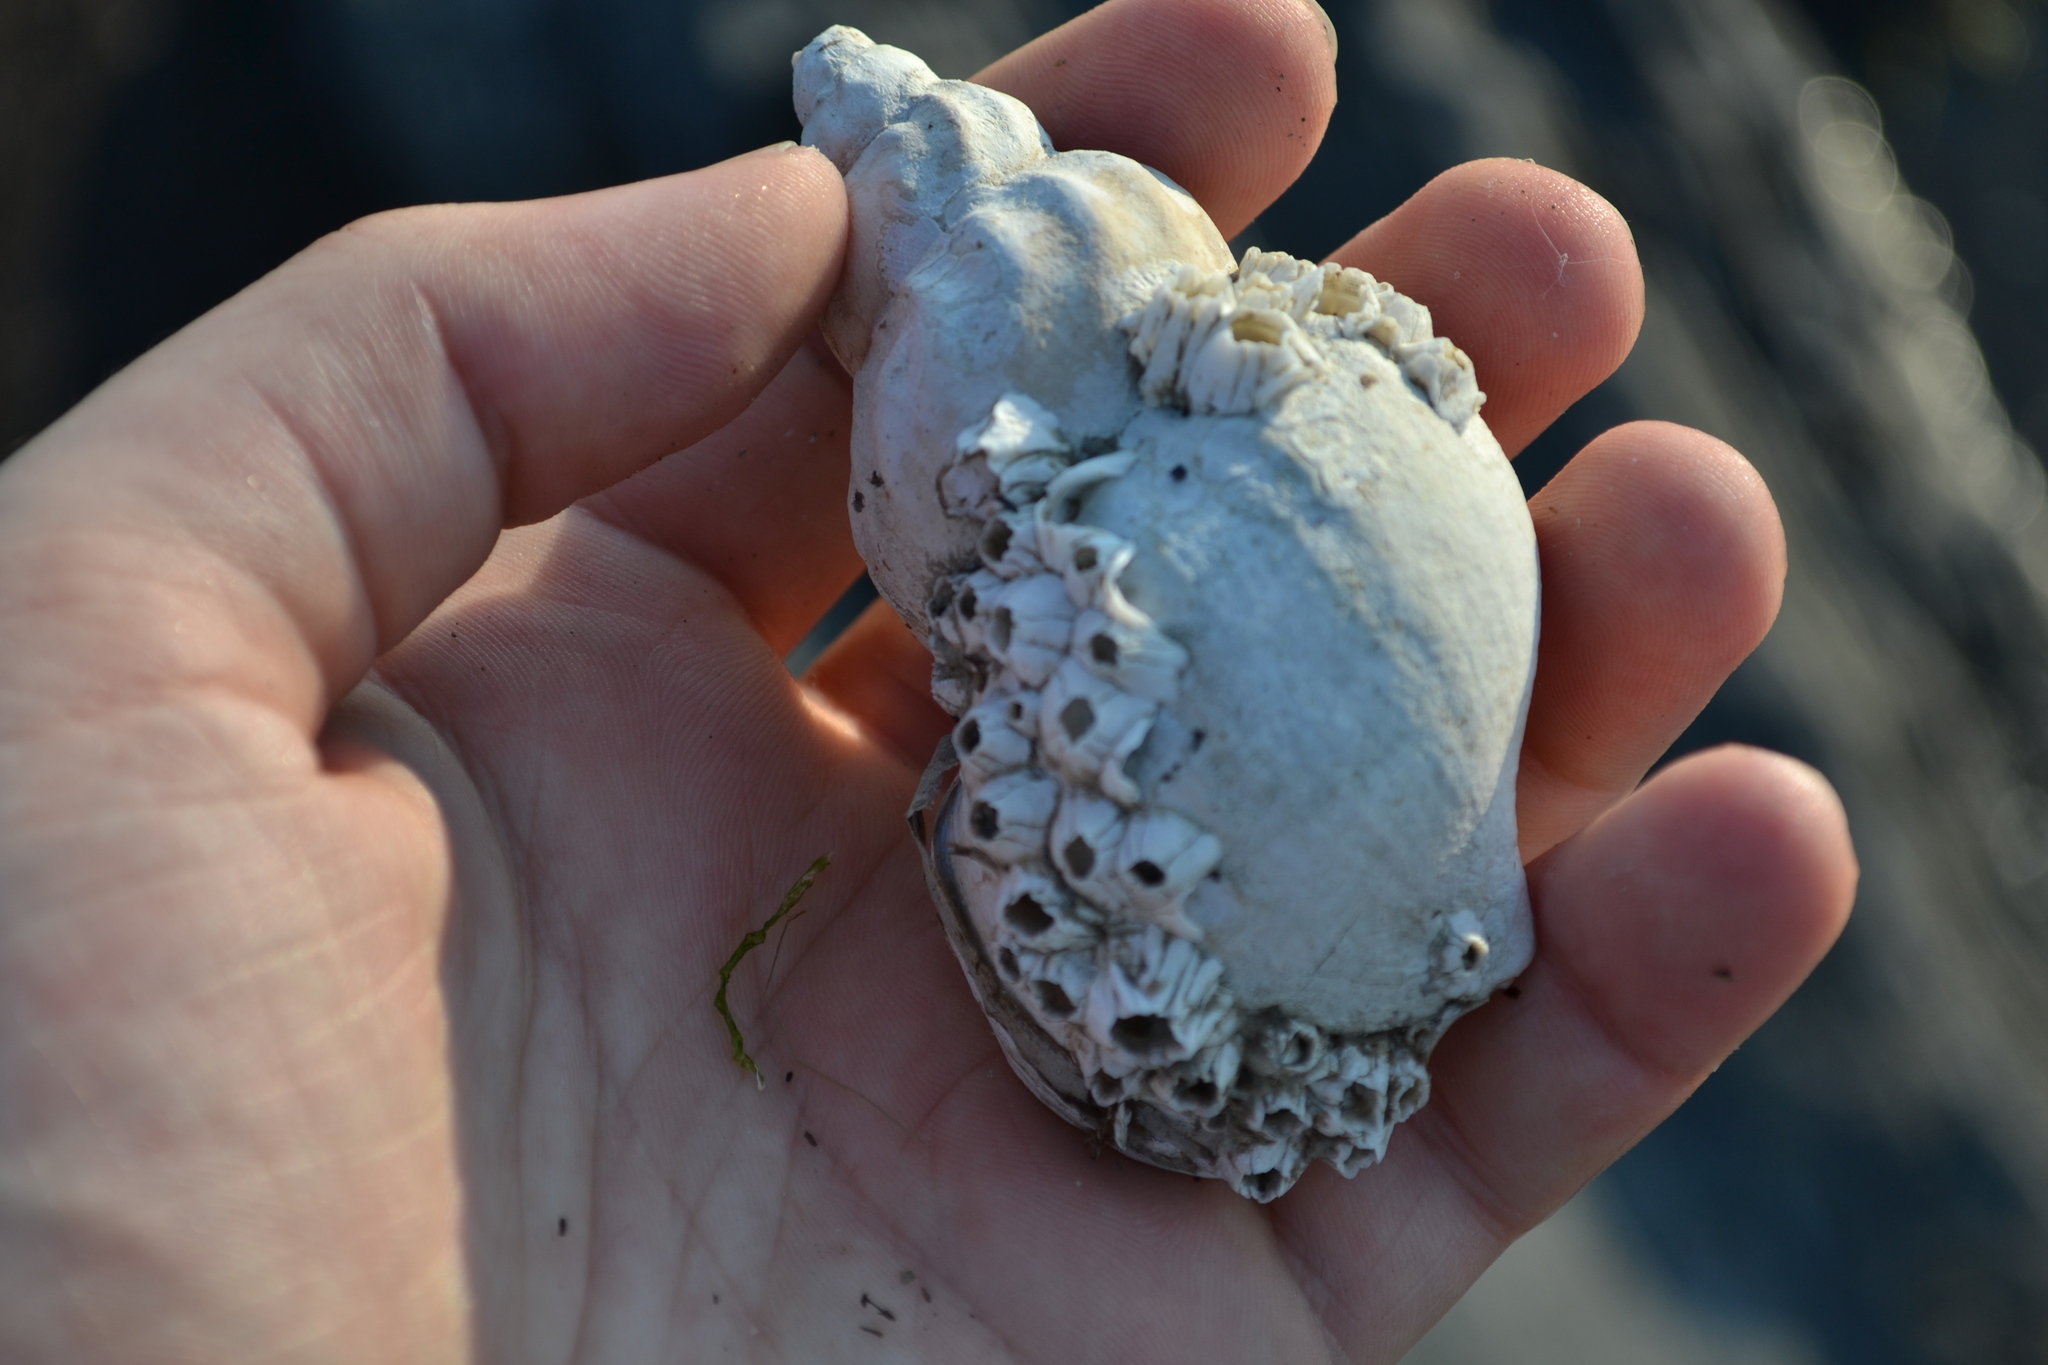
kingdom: Animalia
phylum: Mollusca
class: Gastropoda
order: Neogastropoda
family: Buccinidae
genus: Buccinum
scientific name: Buccinum undatum
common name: Common whelk
